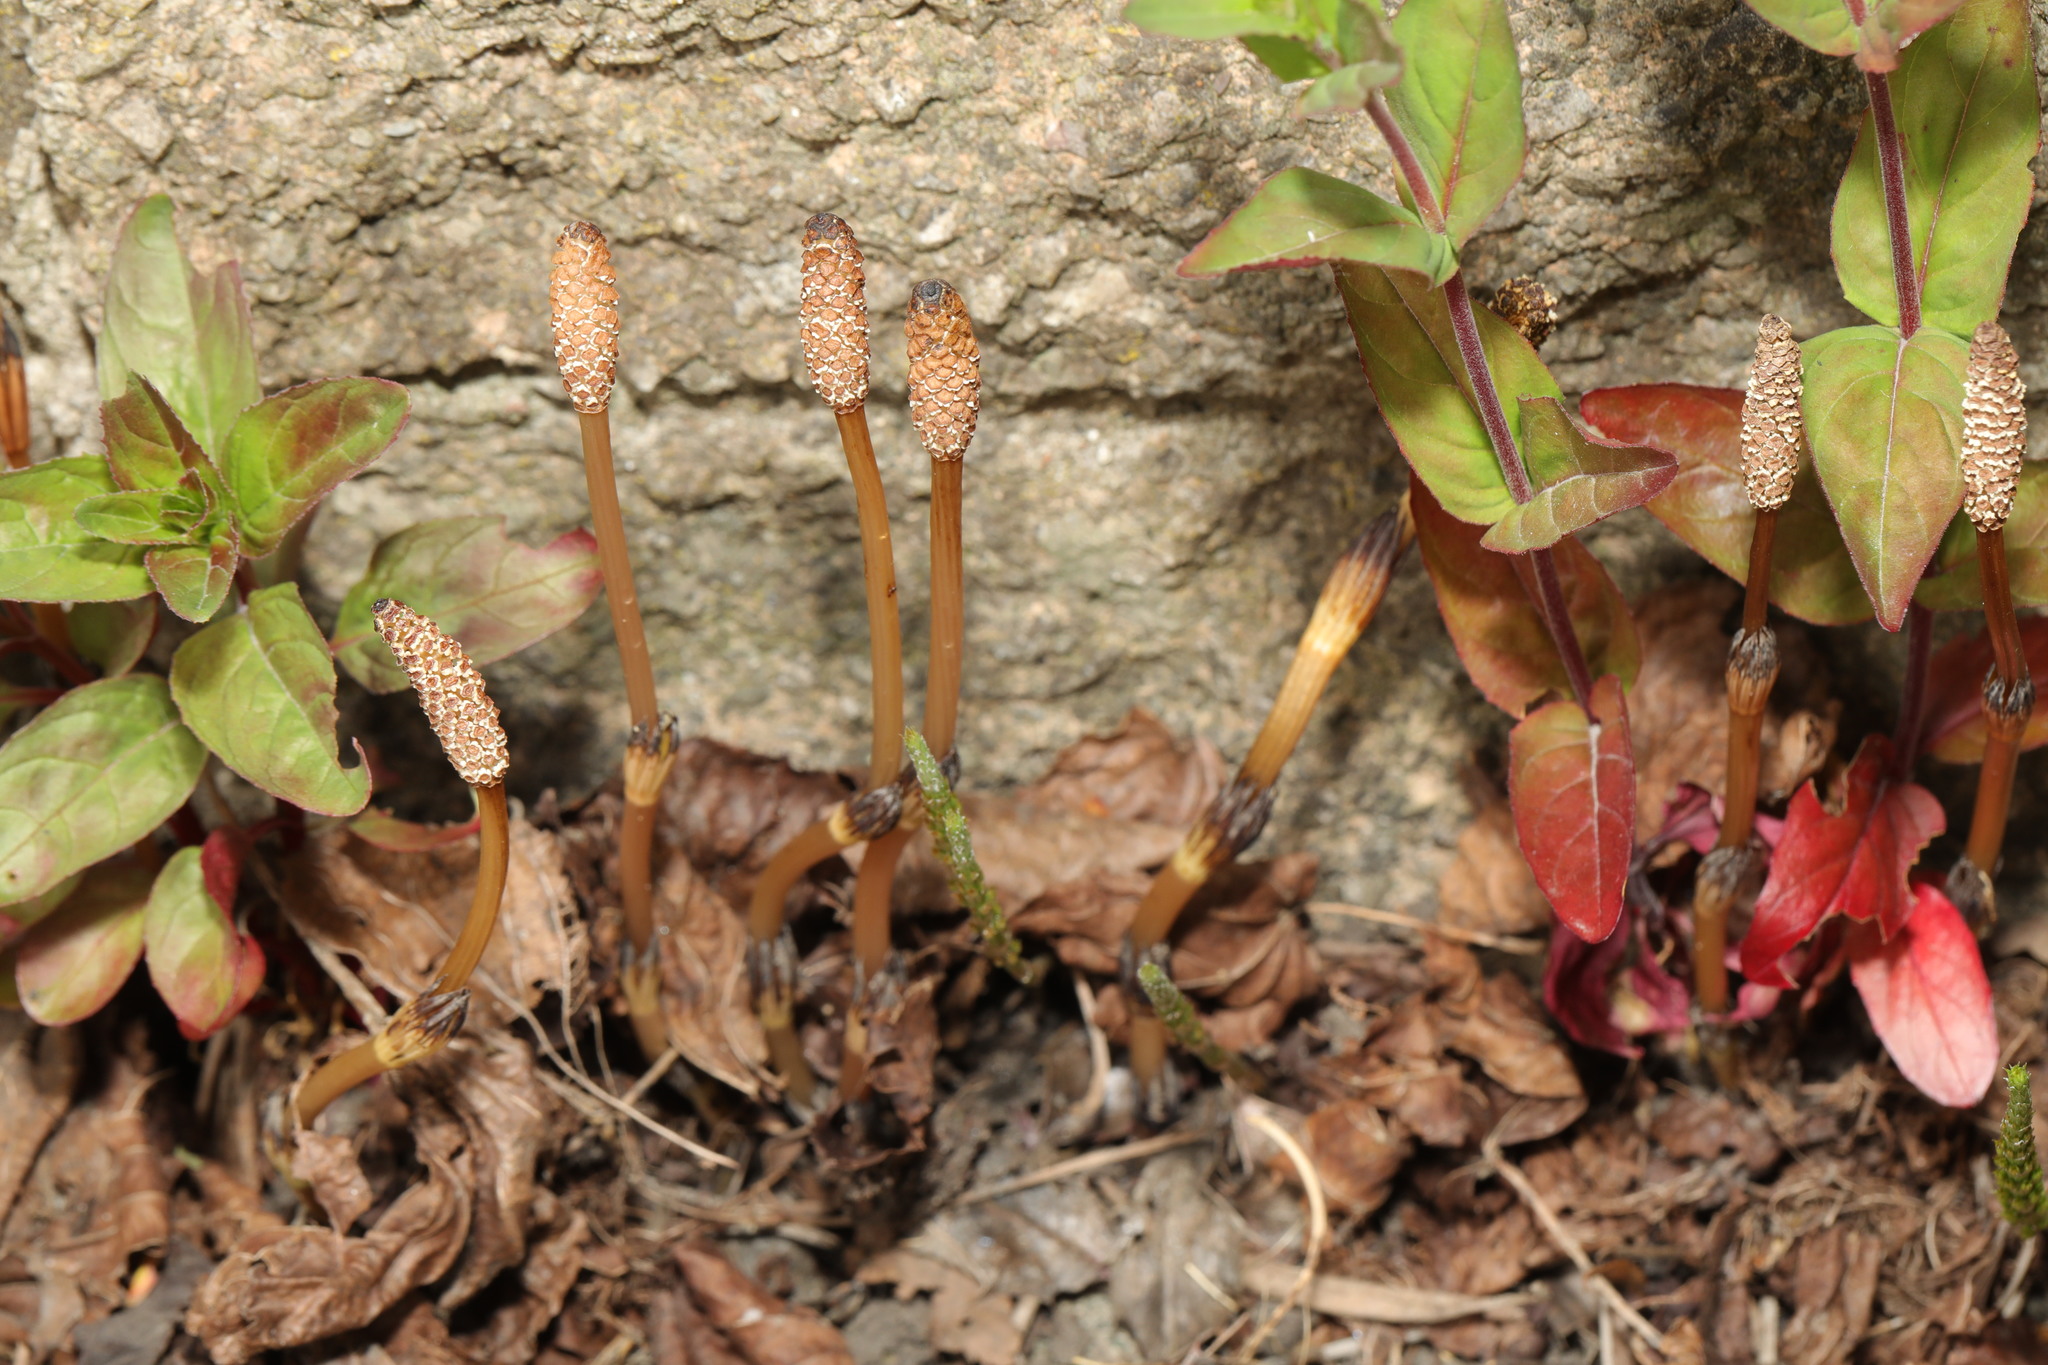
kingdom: Plantae
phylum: Tracheophyta
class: Polypodiopsida
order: Equisetales
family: Equisetaceae
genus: Equisetum
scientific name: Equisetum arvense
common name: Field horsetail
